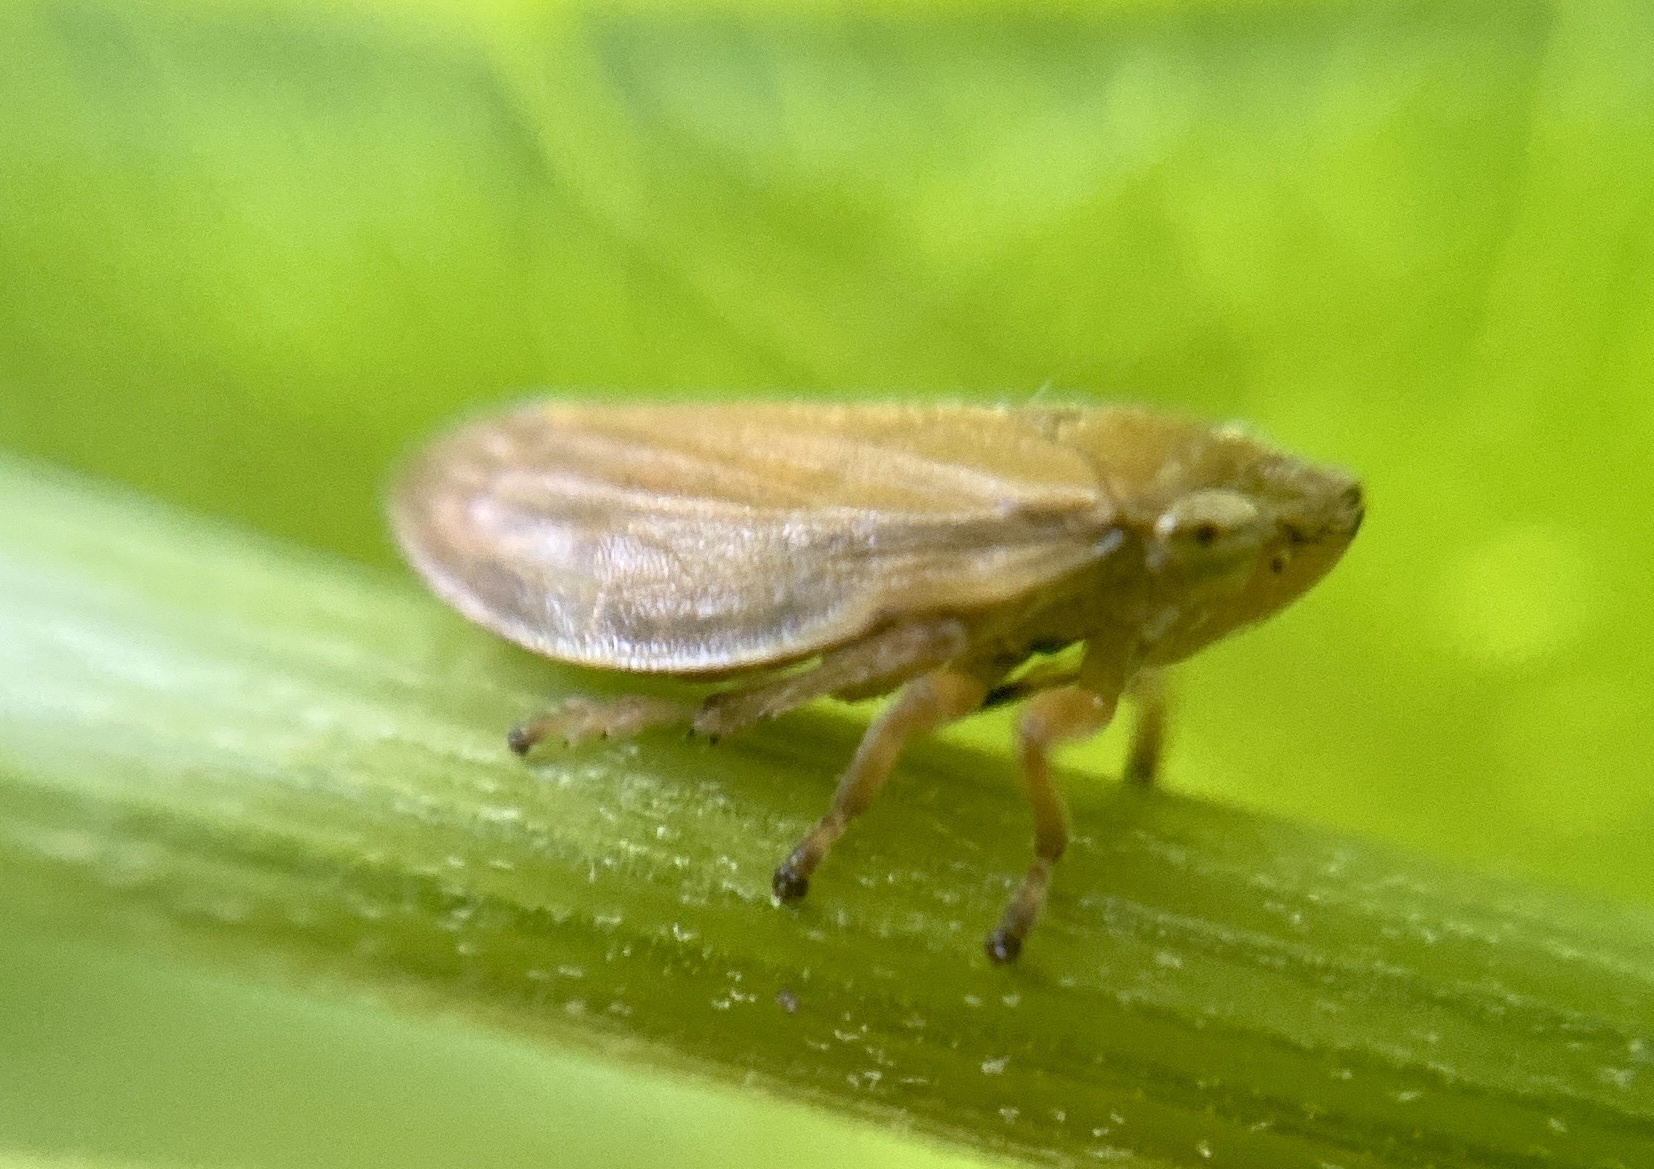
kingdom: Animalia
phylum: Arthropoda
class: Insecta
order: Hemiptera
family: Aphrophoridae
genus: Philaenus
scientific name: Philaenus spumarius
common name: Meadow spittlebug
